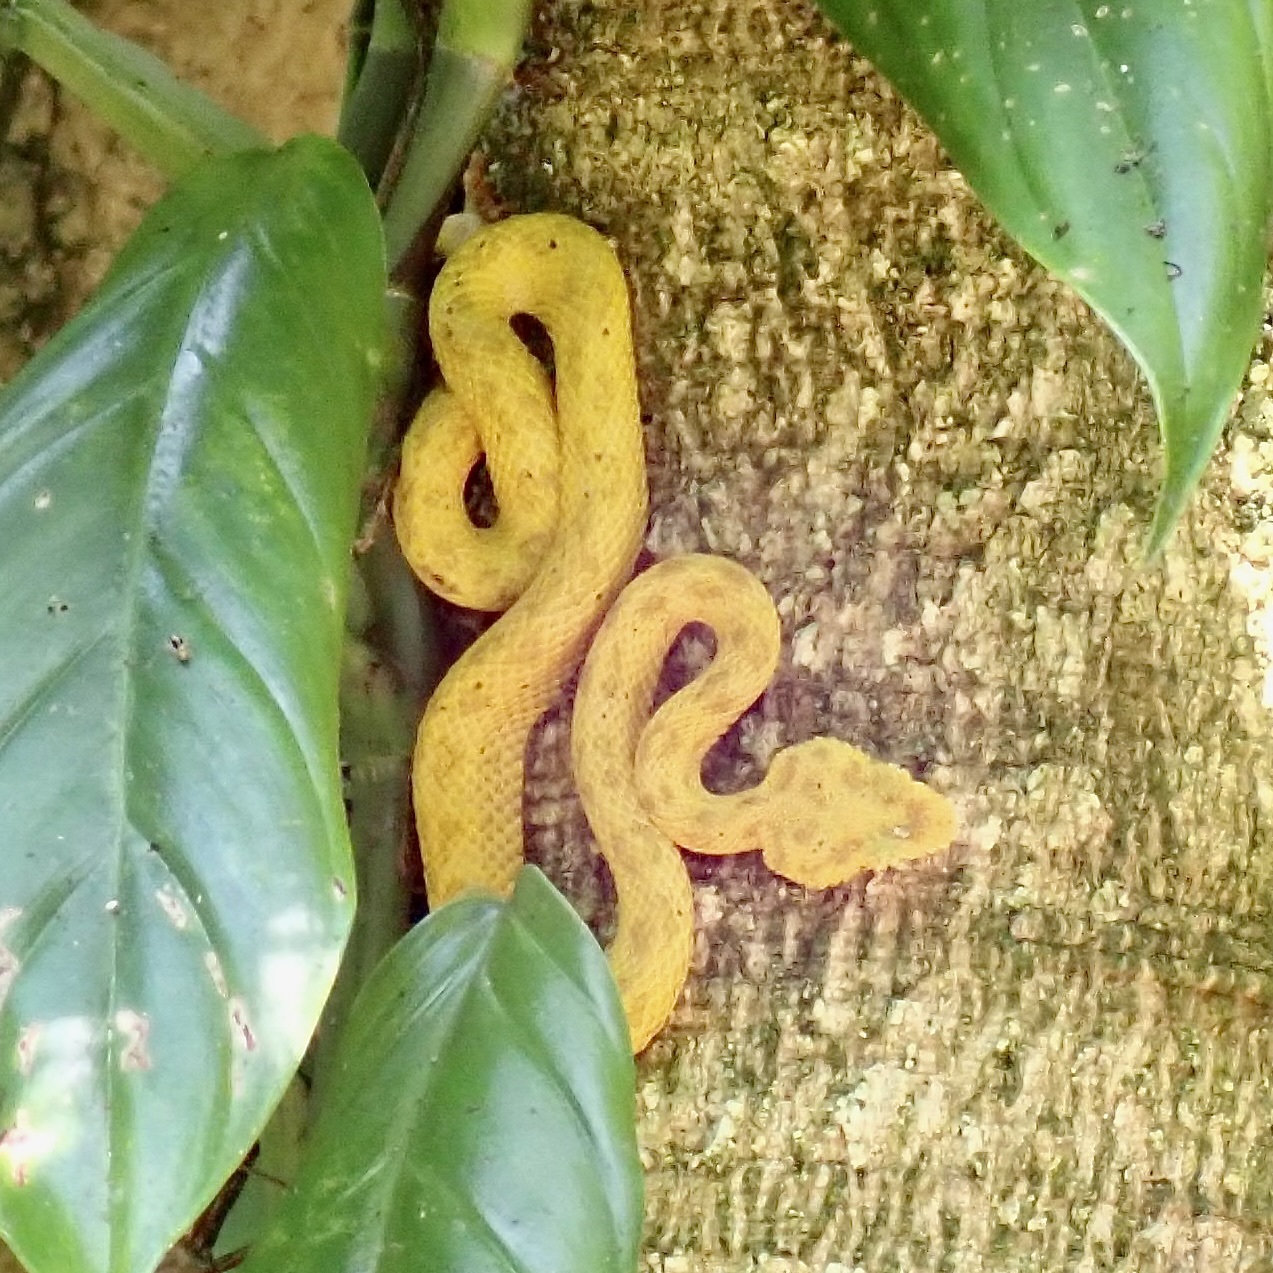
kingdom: Animalia
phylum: Chordata
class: Squamata
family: Viperidae
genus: Bothriechis
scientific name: Bothriechis schlegelii
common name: Eyelash viper
